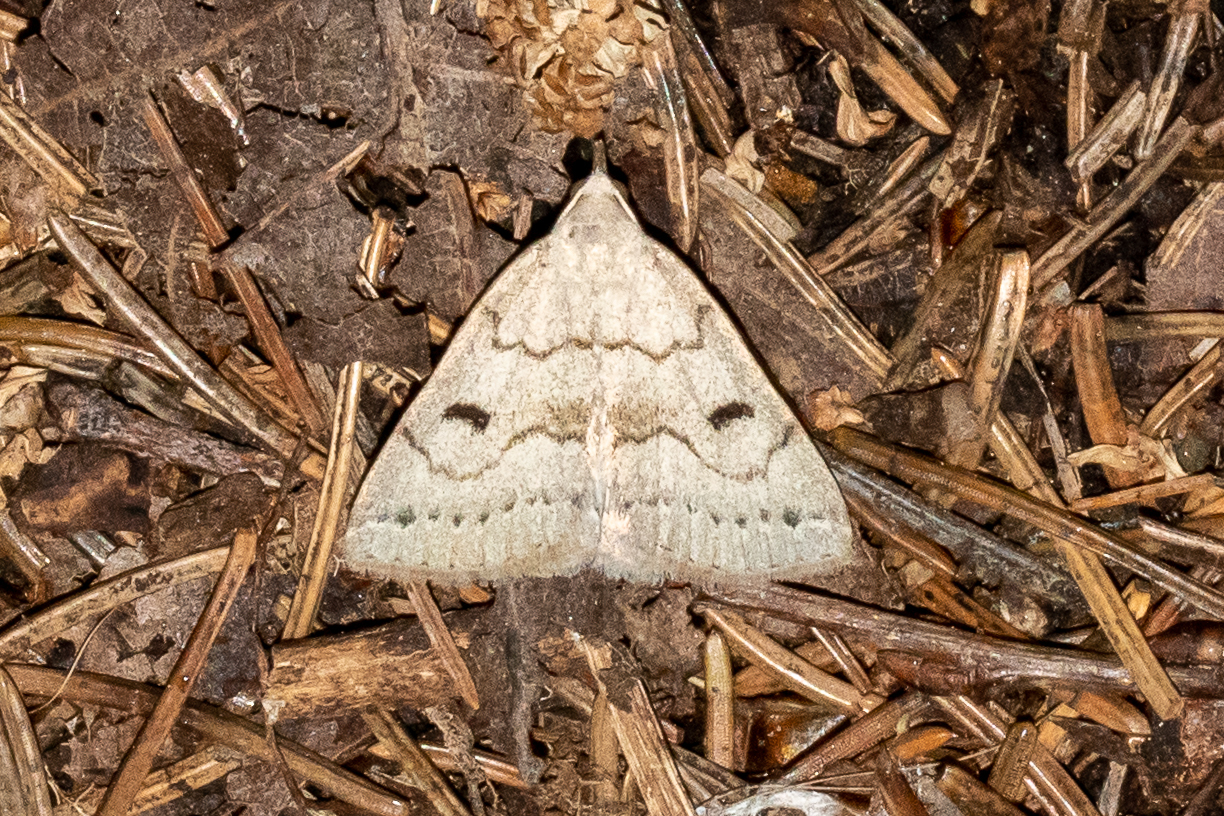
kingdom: Animalia
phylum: Arthropoda
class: Insecta
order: Lepidoptera
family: Erebidae
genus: Macrochilo
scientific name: Macrochilo morbidalis
